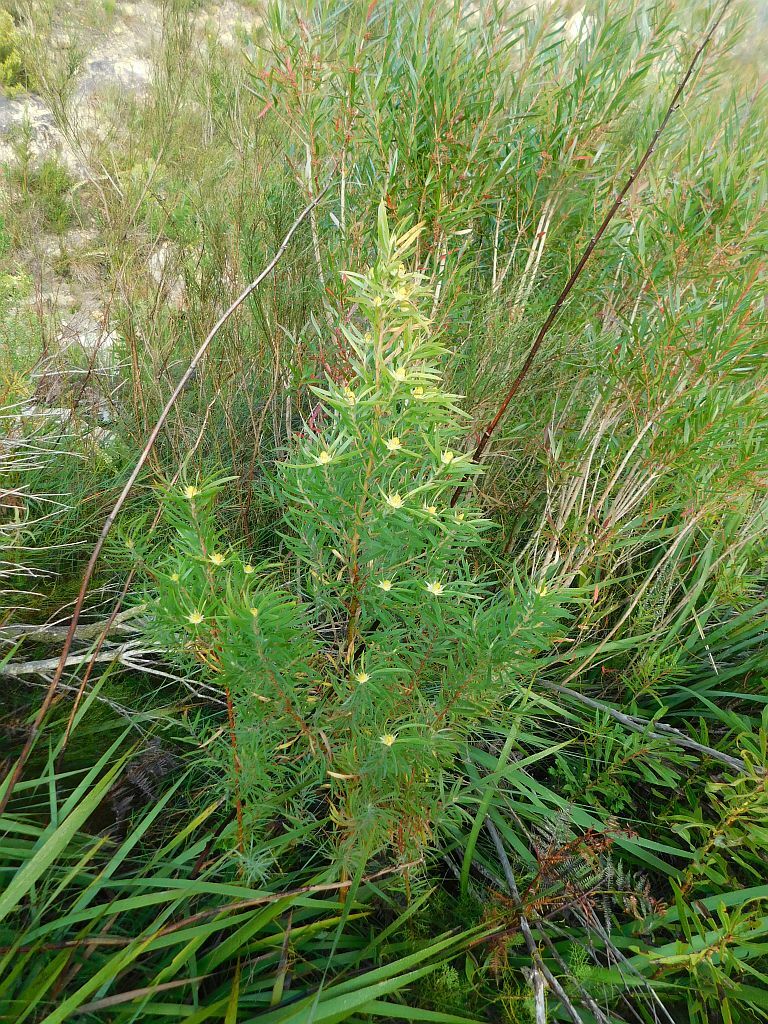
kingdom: Plantae
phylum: Tracheophyta
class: Magnoliopsida
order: Proteales
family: Proteaceae
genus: Leucadendron
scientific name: Leucadendron salicifolium
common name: Common stream conebush
